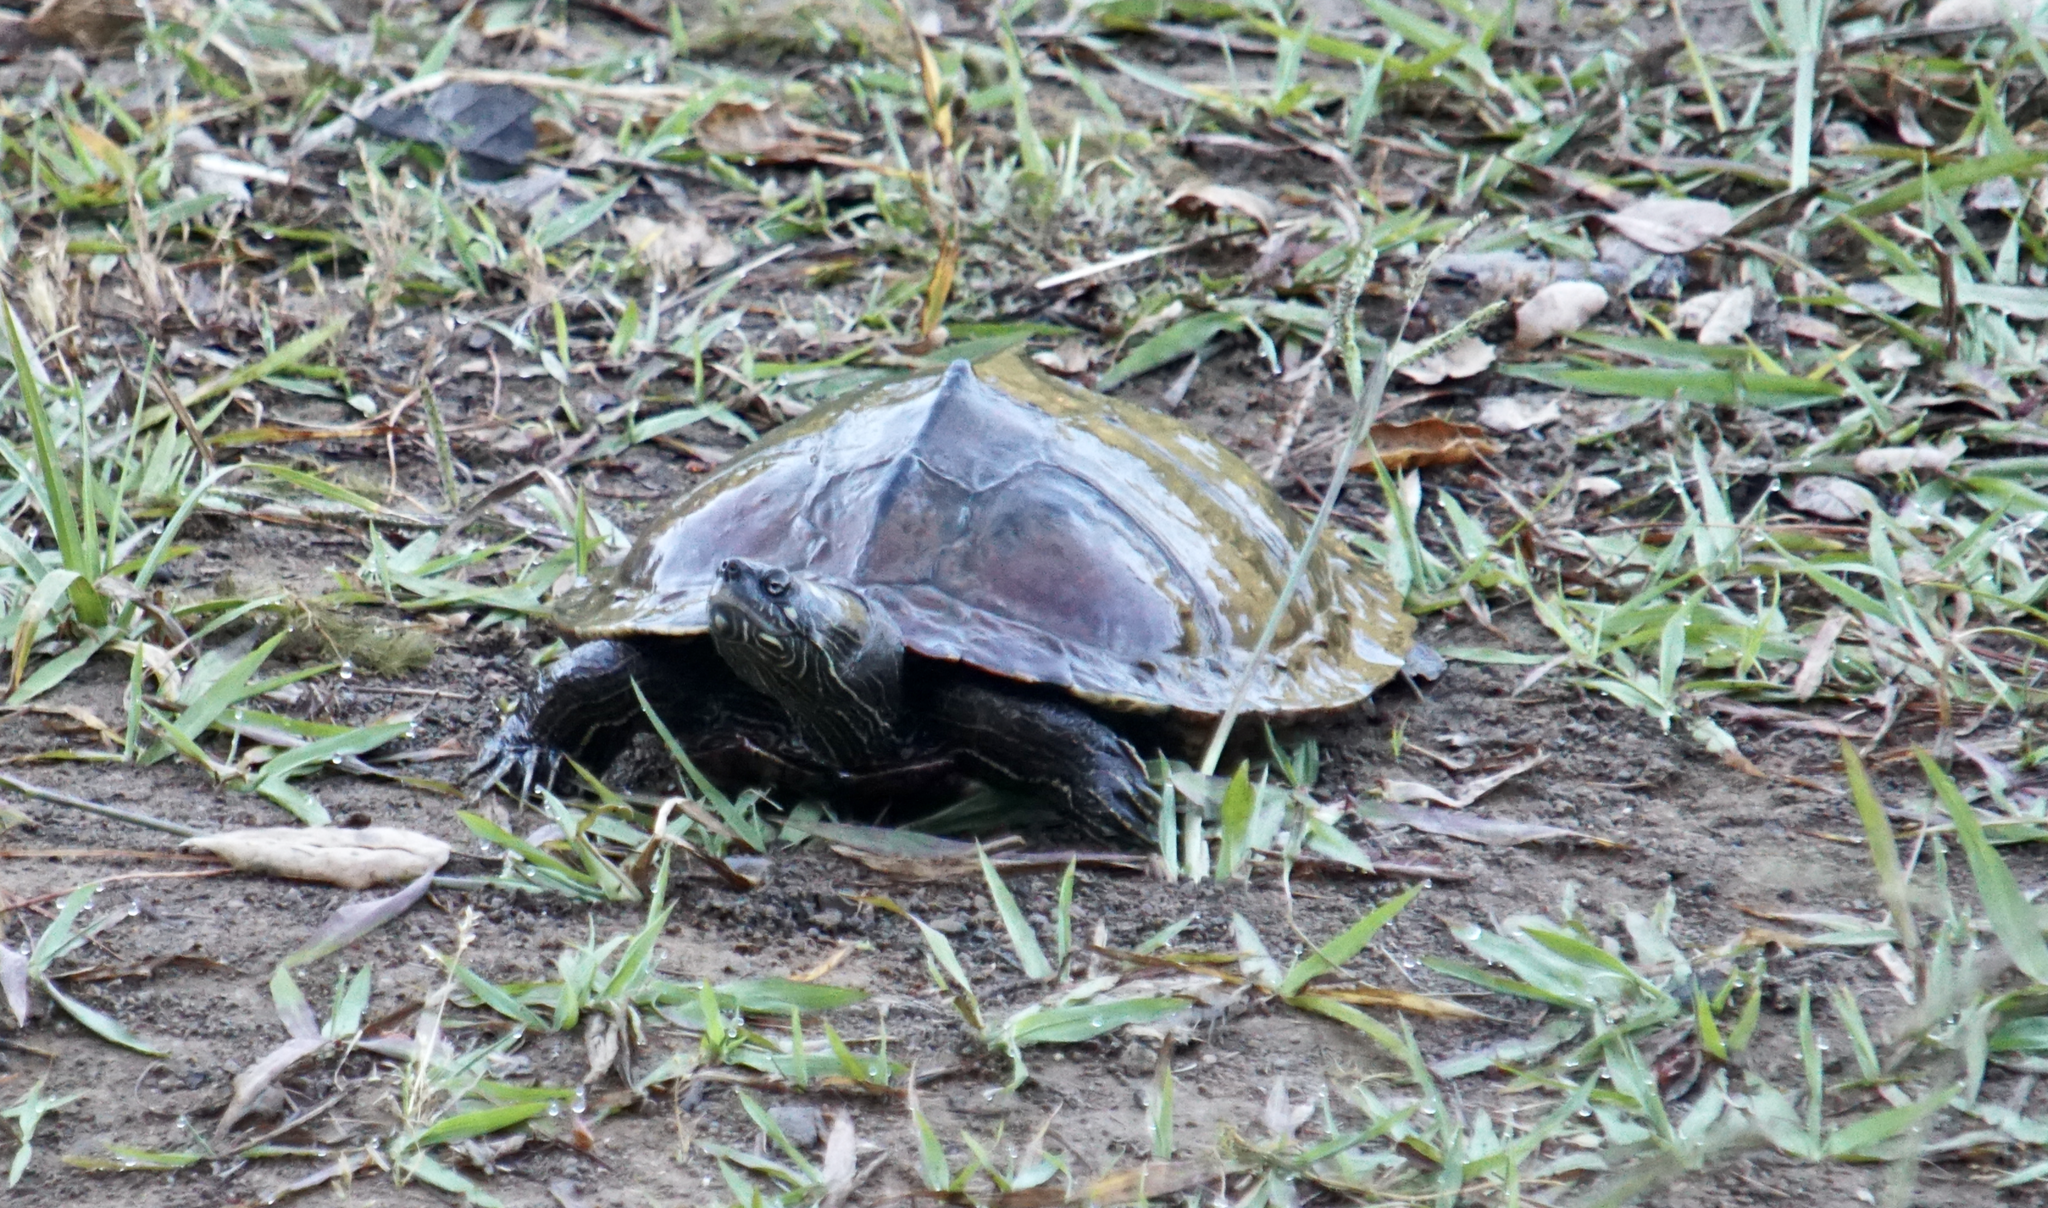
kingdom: Animalia
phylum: Chordata
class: Testudines
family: Emydidae
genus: Graptemys
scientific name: Graptemys ouachitensis
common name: Ouachita map turtle
